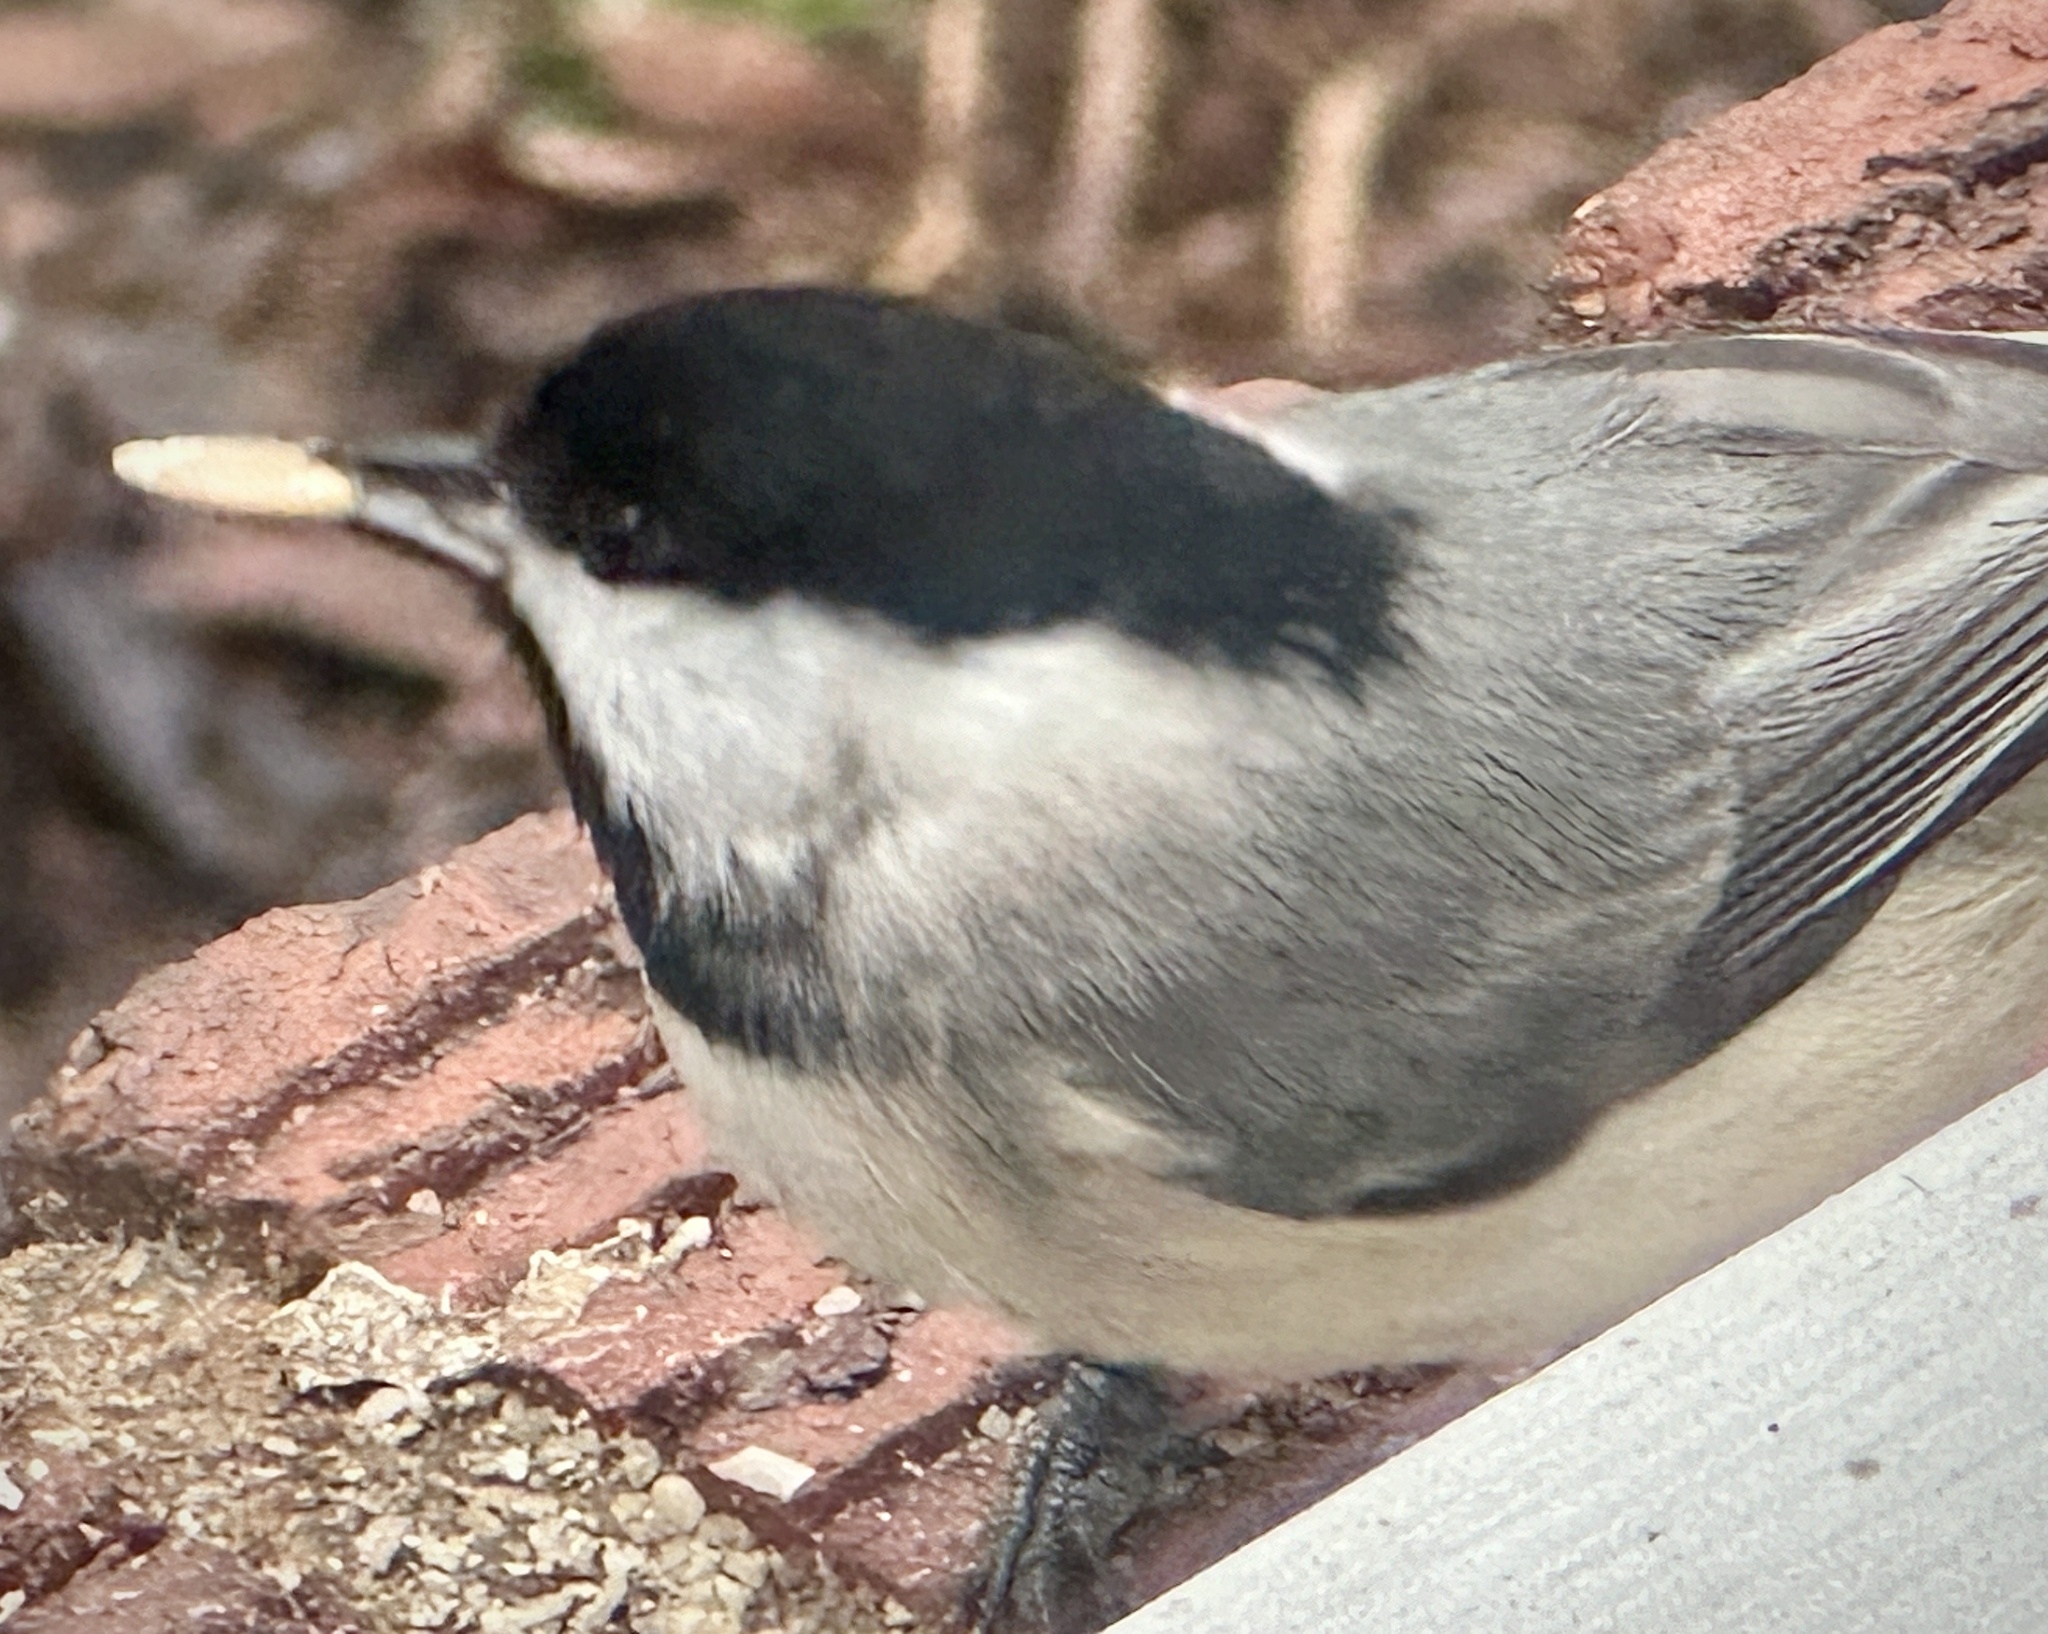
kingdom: Animalia
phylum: Chordata
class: Aves
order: Passeriformes
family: Paridae
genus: Poecile
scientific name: Poecile carolinensis
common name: Carolina chickadee
